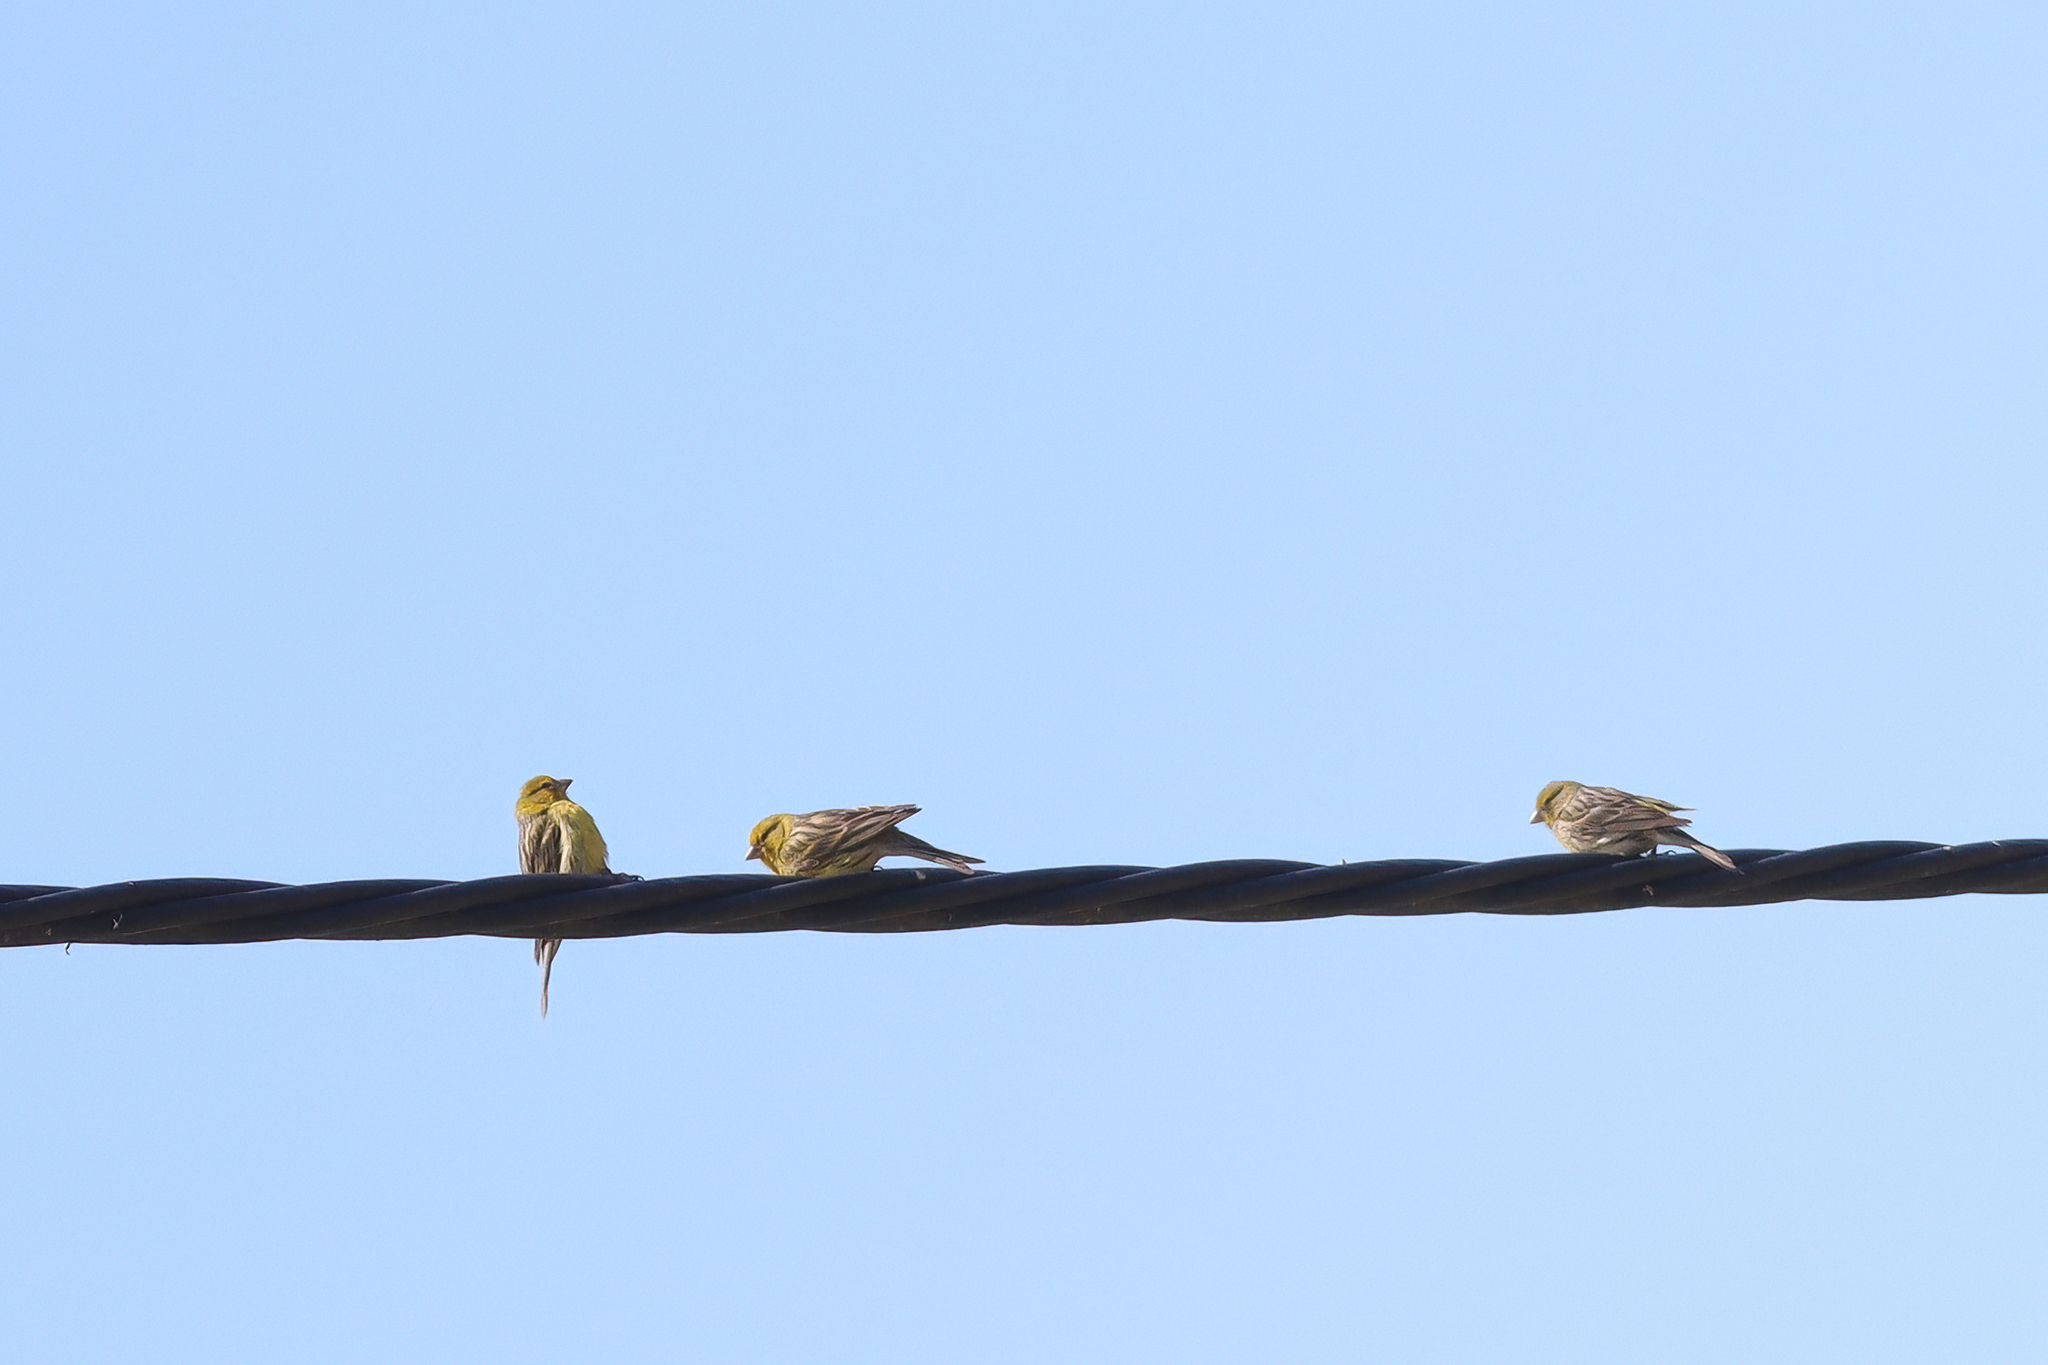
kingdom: Animalia
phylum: Chordata
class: Aves
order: Passeriformes
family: Fringillidae
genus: Serinus
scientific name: Serinus canaria
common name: Atlantic canary
